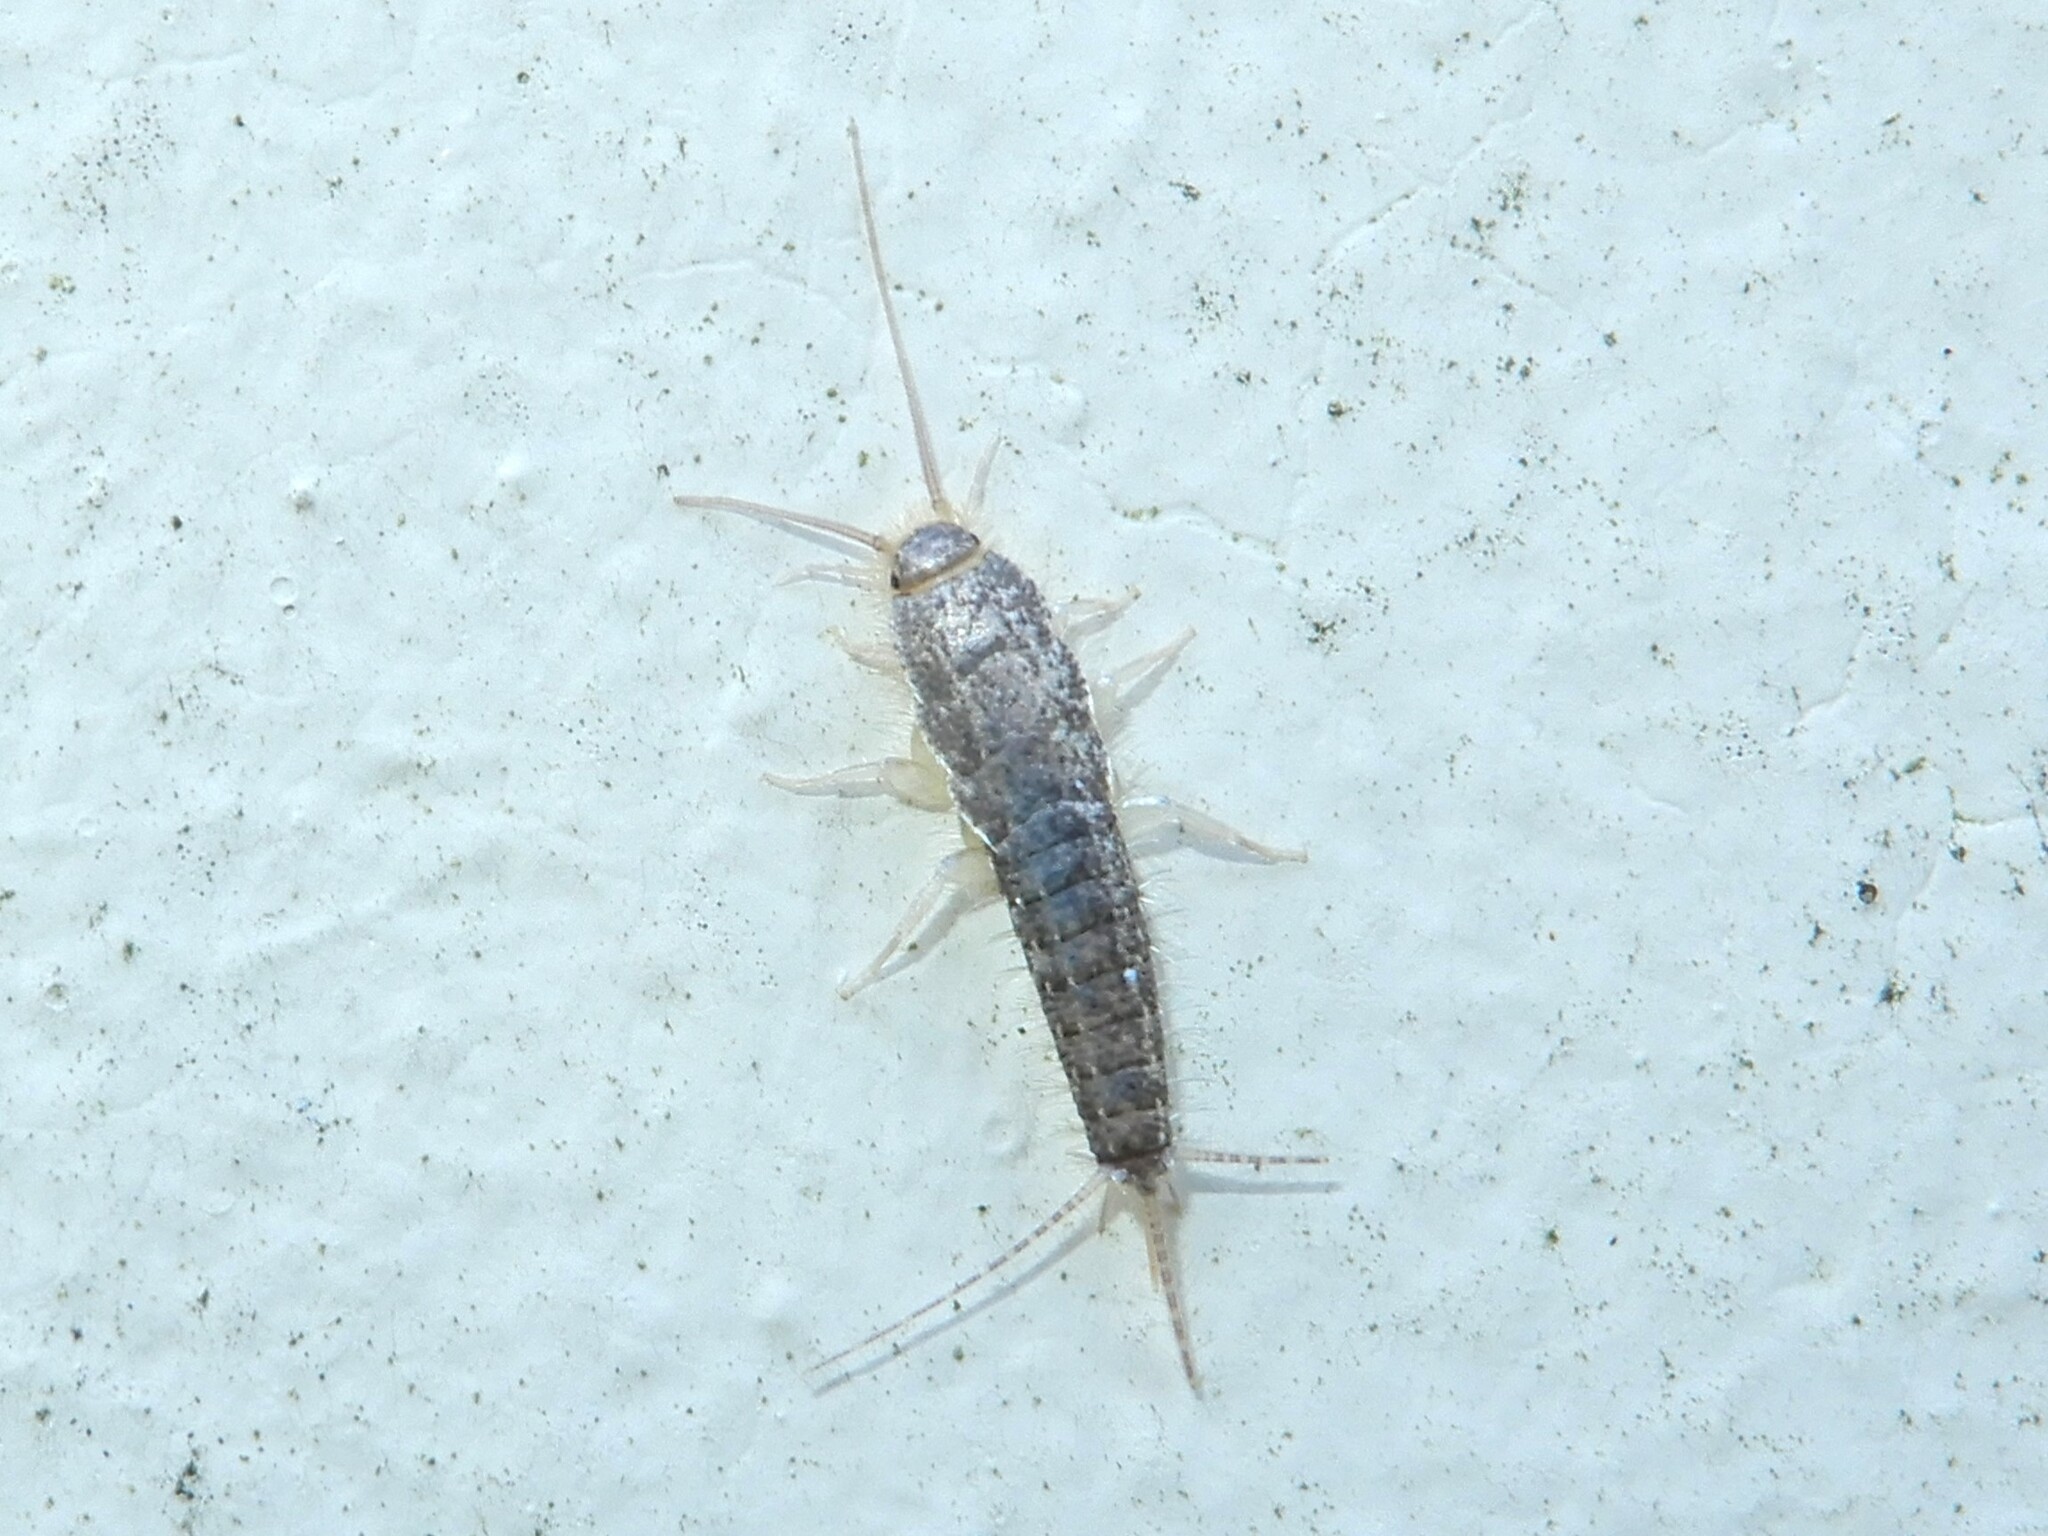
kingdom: Animalia
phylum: Arthropoda
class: Insecta
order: Zygentoma
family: Lepismatidae
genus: Ctenolepisma
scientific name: Ctenolepisma longicaudatum
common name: Silverfish
